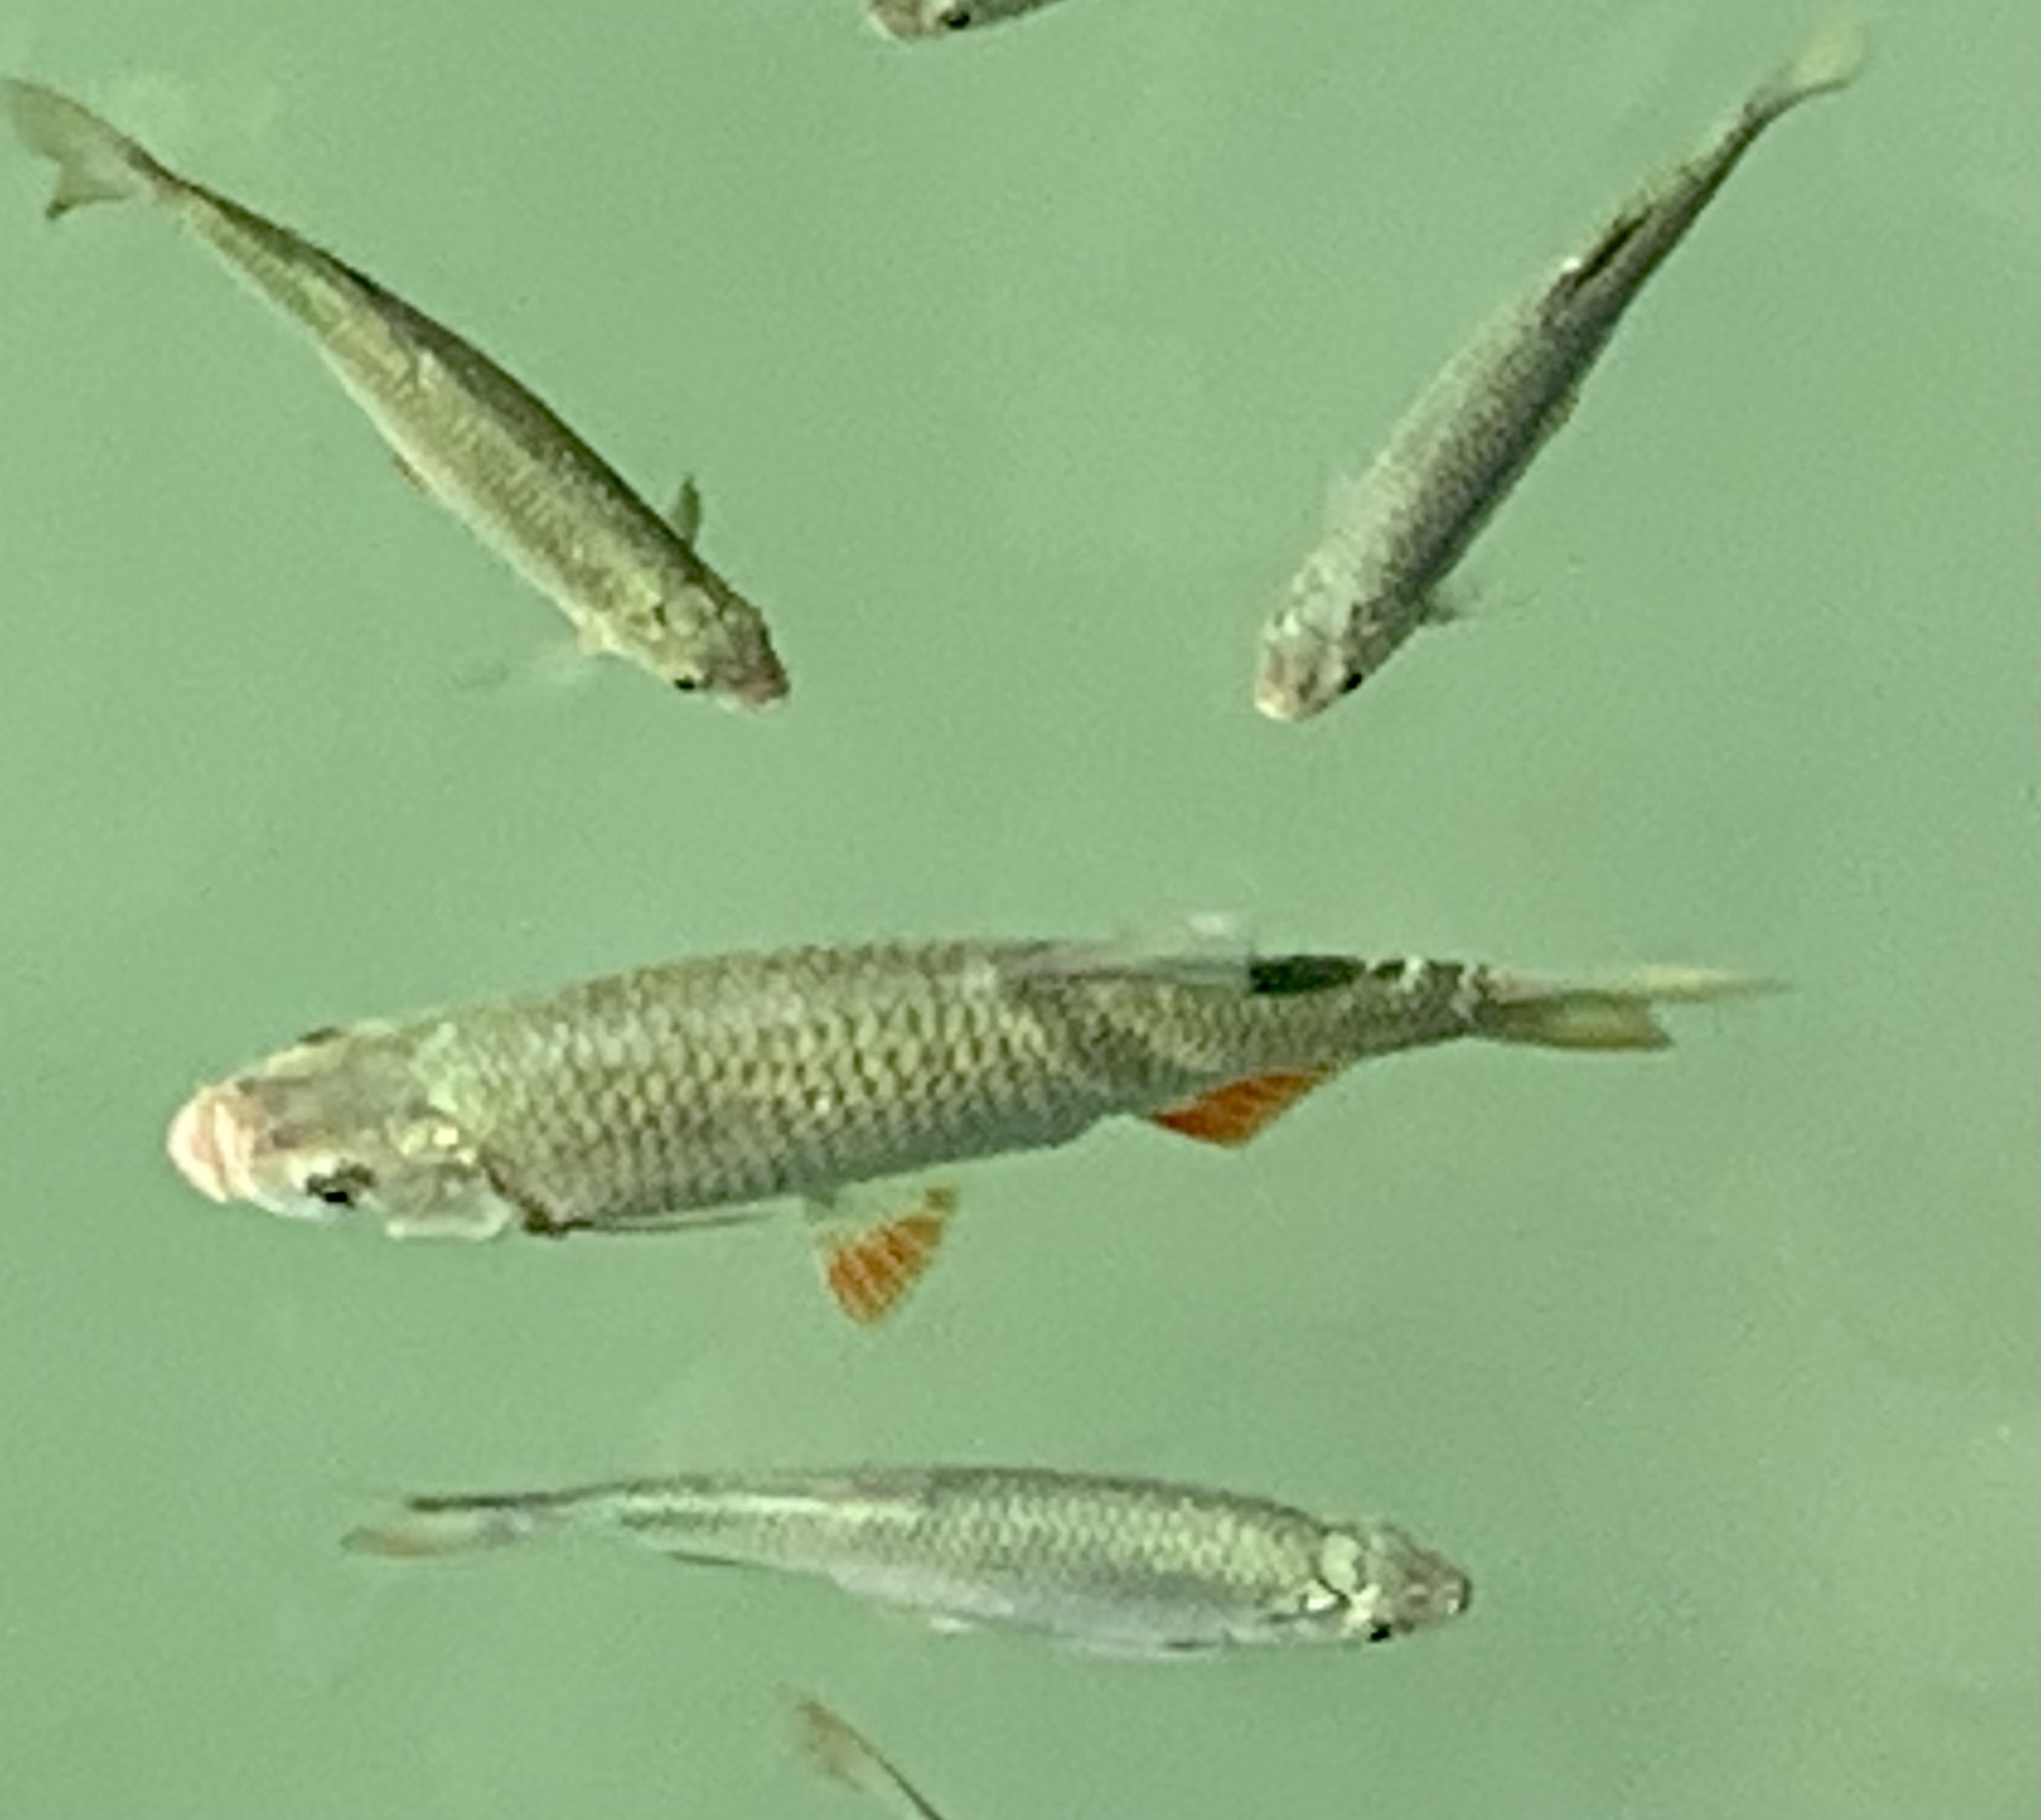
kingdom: Animalia
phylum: Chordata
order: Cypriniformes
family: Cyprinidae
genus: Scardinius
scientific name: Scardinius erythrophthalmus
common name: Rudd
